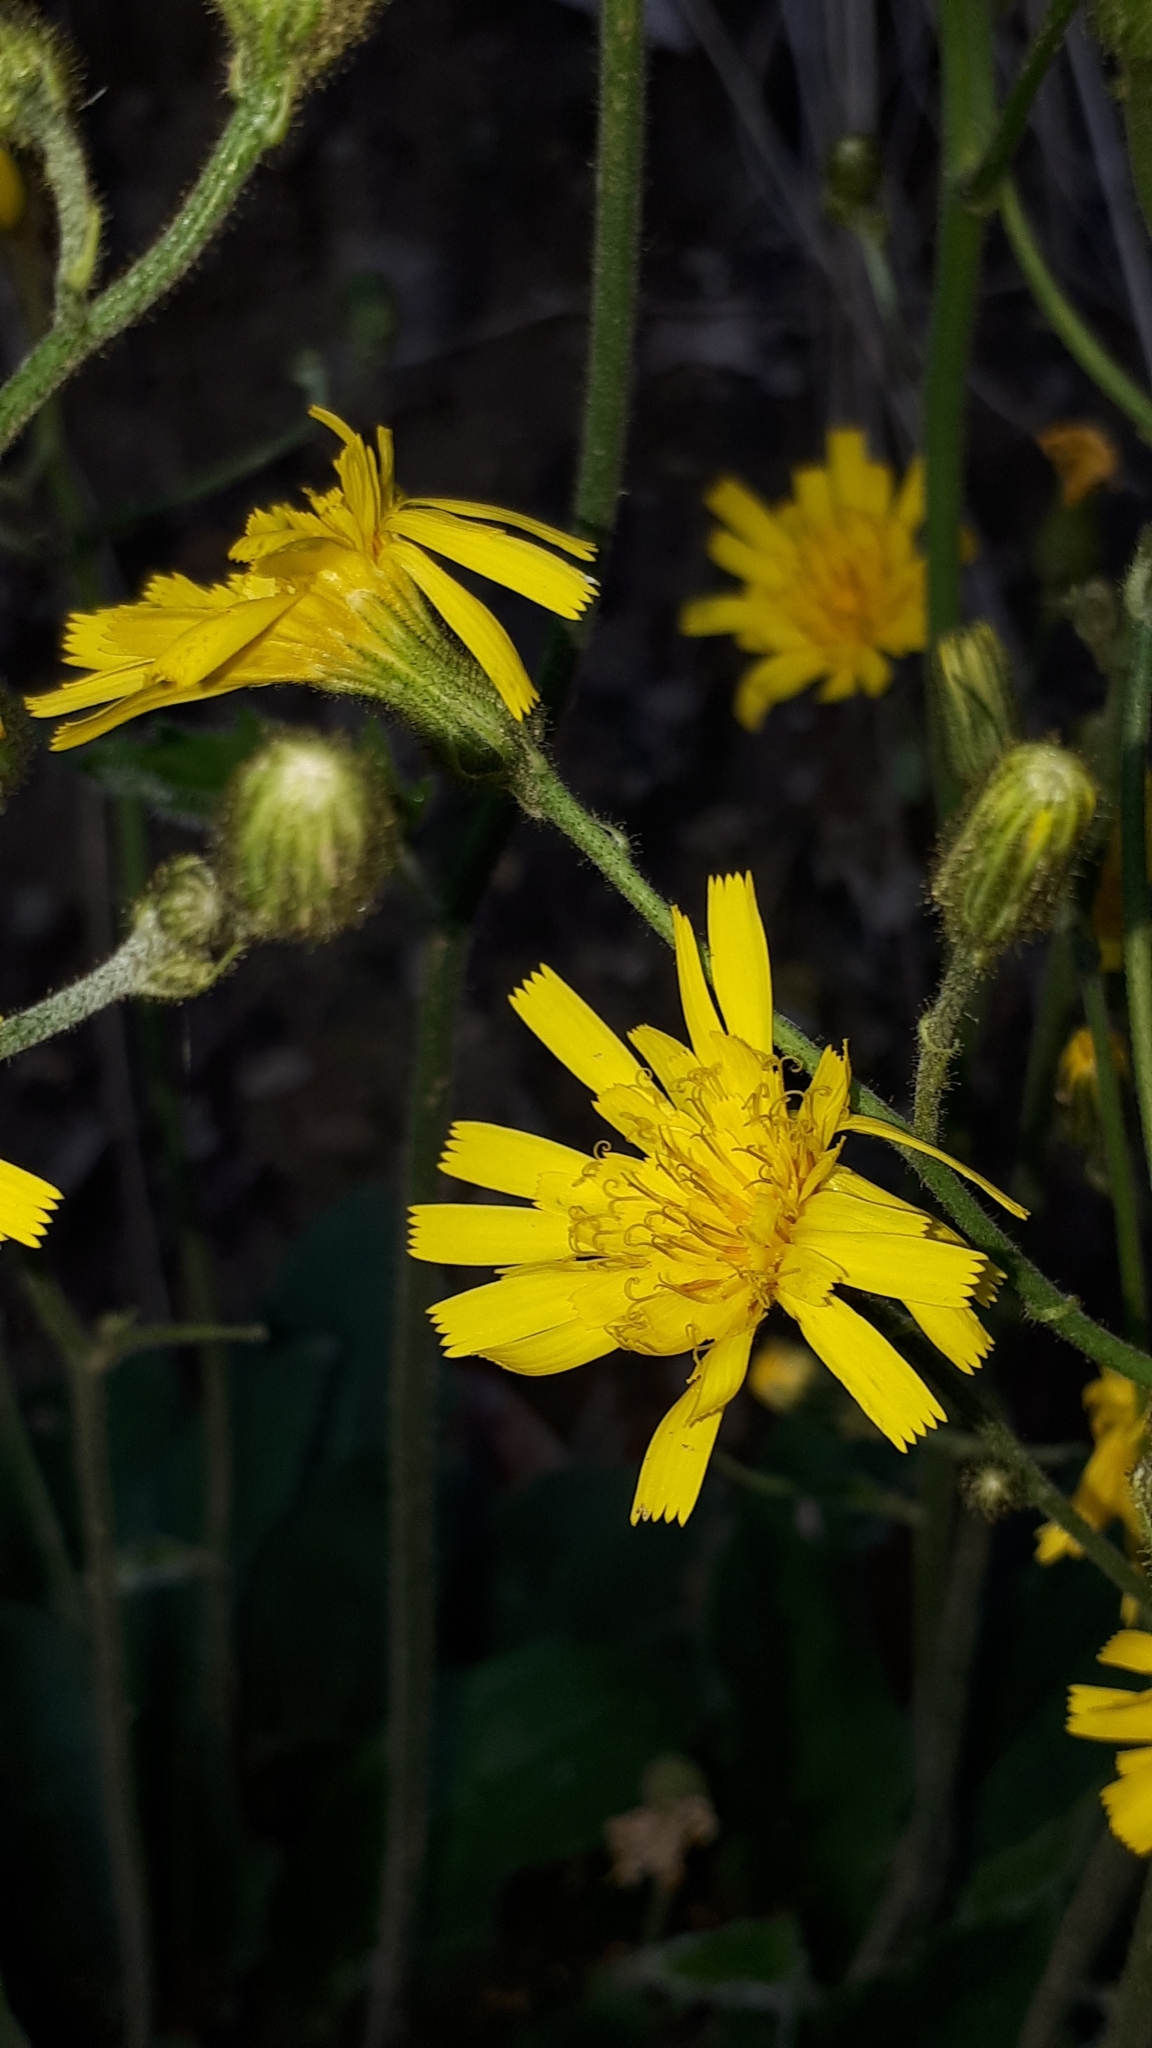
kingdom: Plantae
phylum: Tracheophyta
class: Magnoliopsida
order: Asterales
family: Asteraceae
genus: Hieracium
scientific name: Hieracium murorum
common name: Wall hawkweed
